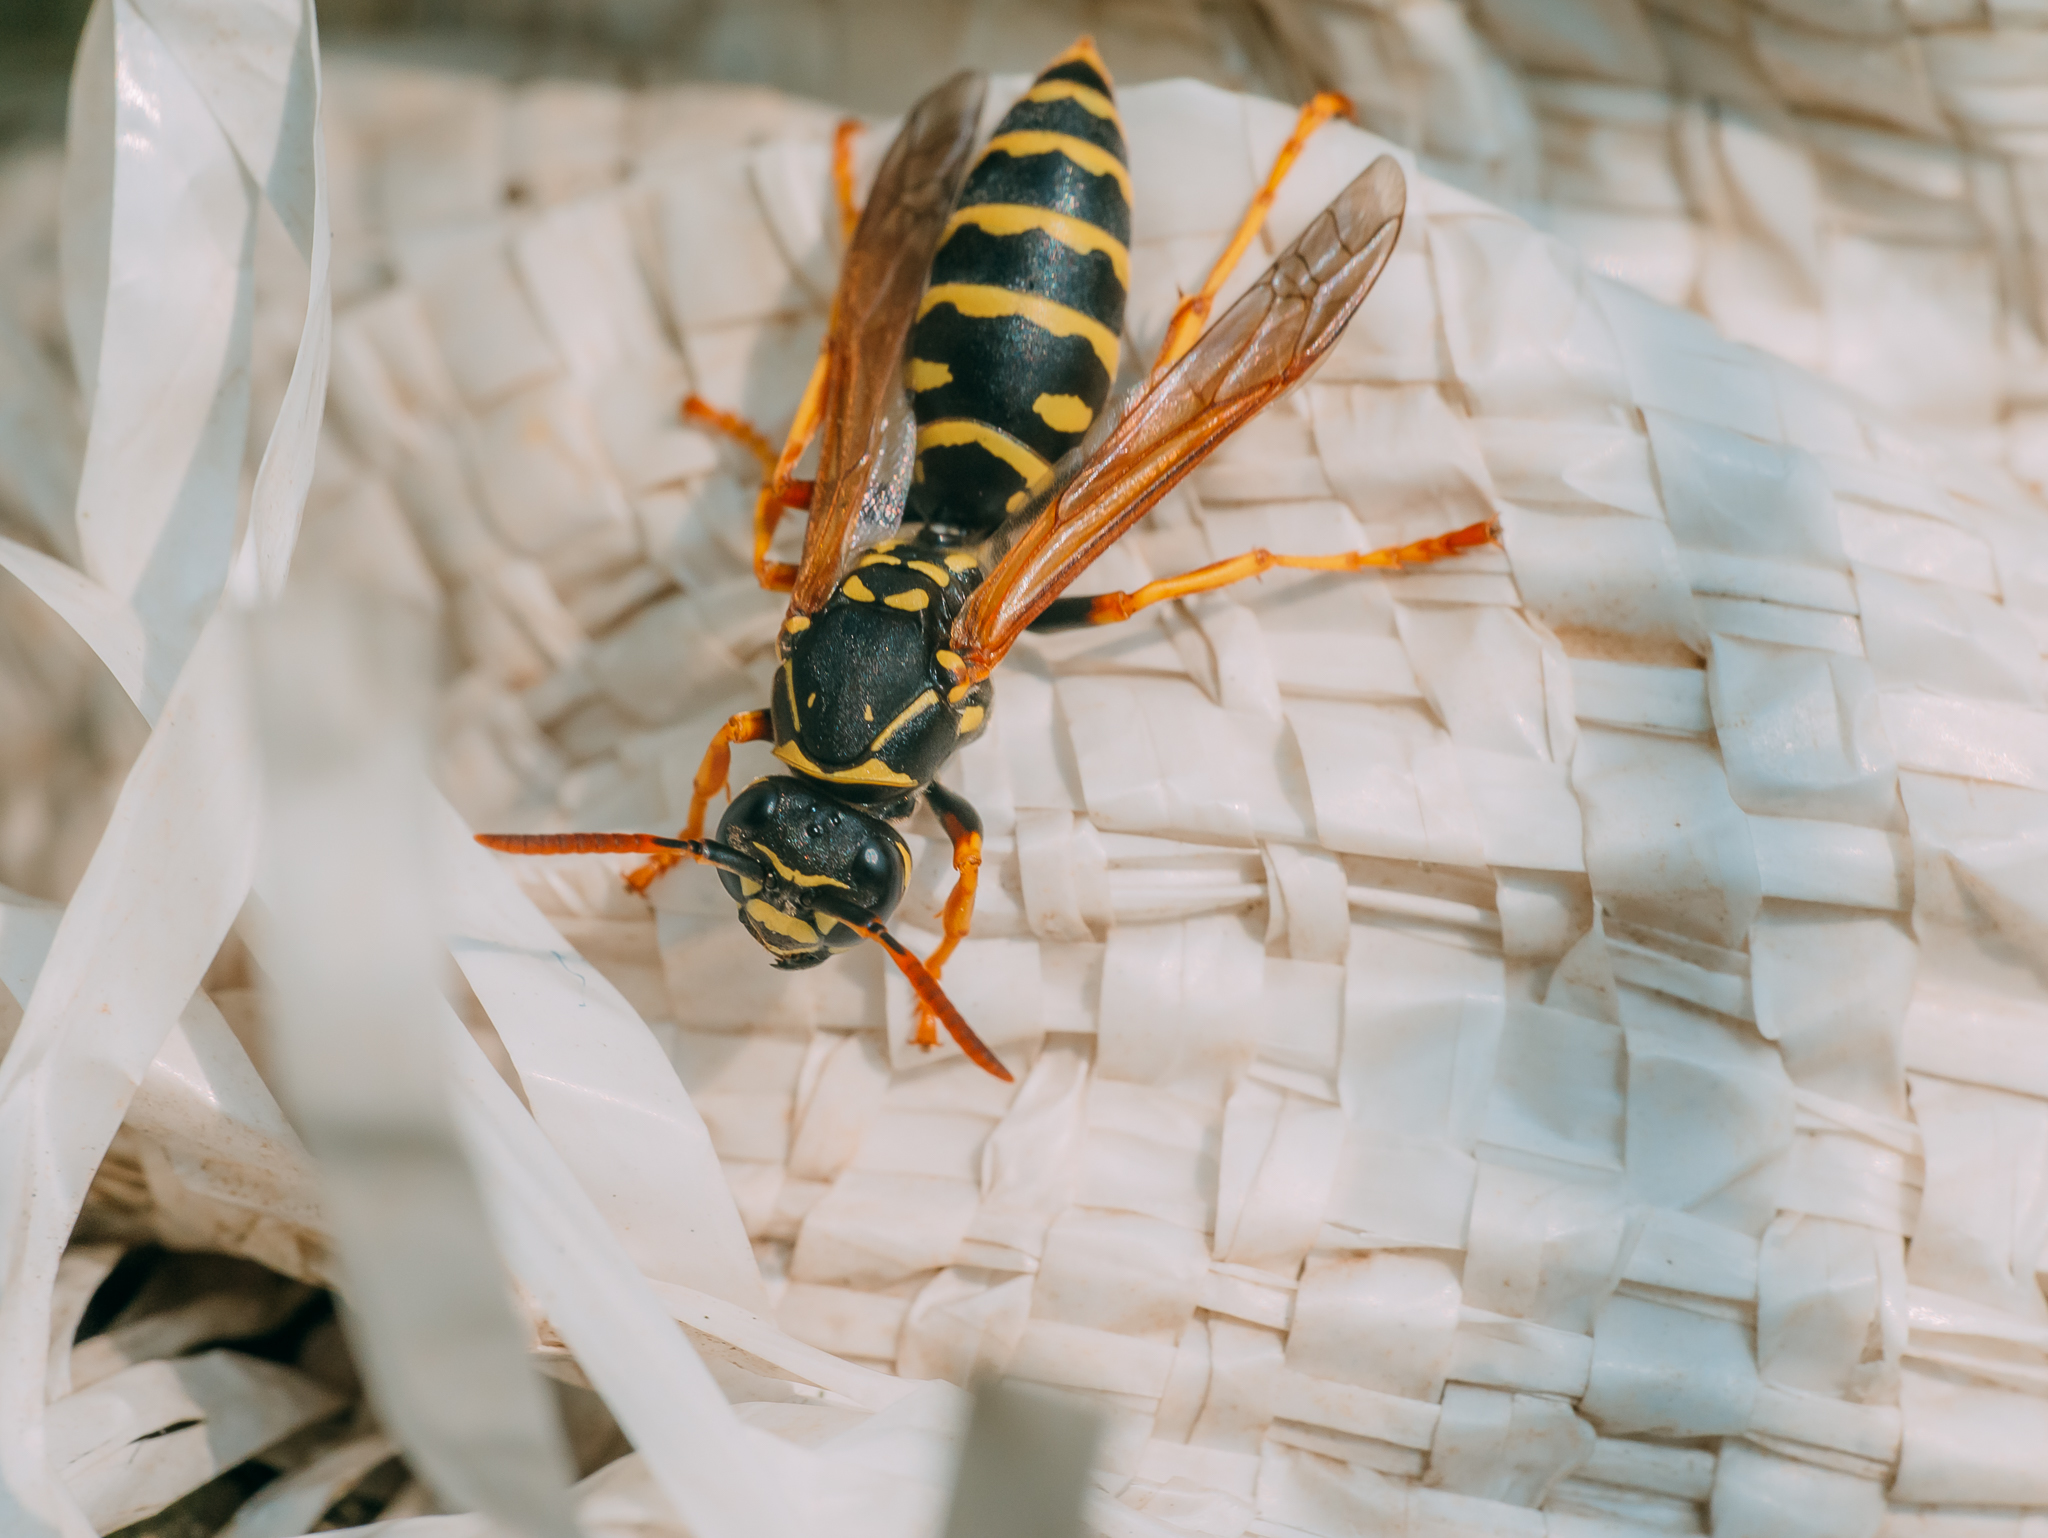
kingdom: Animalia
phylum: Arthropoda
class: Insecta
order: Hymenoptera
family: Eumenidae
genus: Polistes
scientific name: Polistes nimpha
